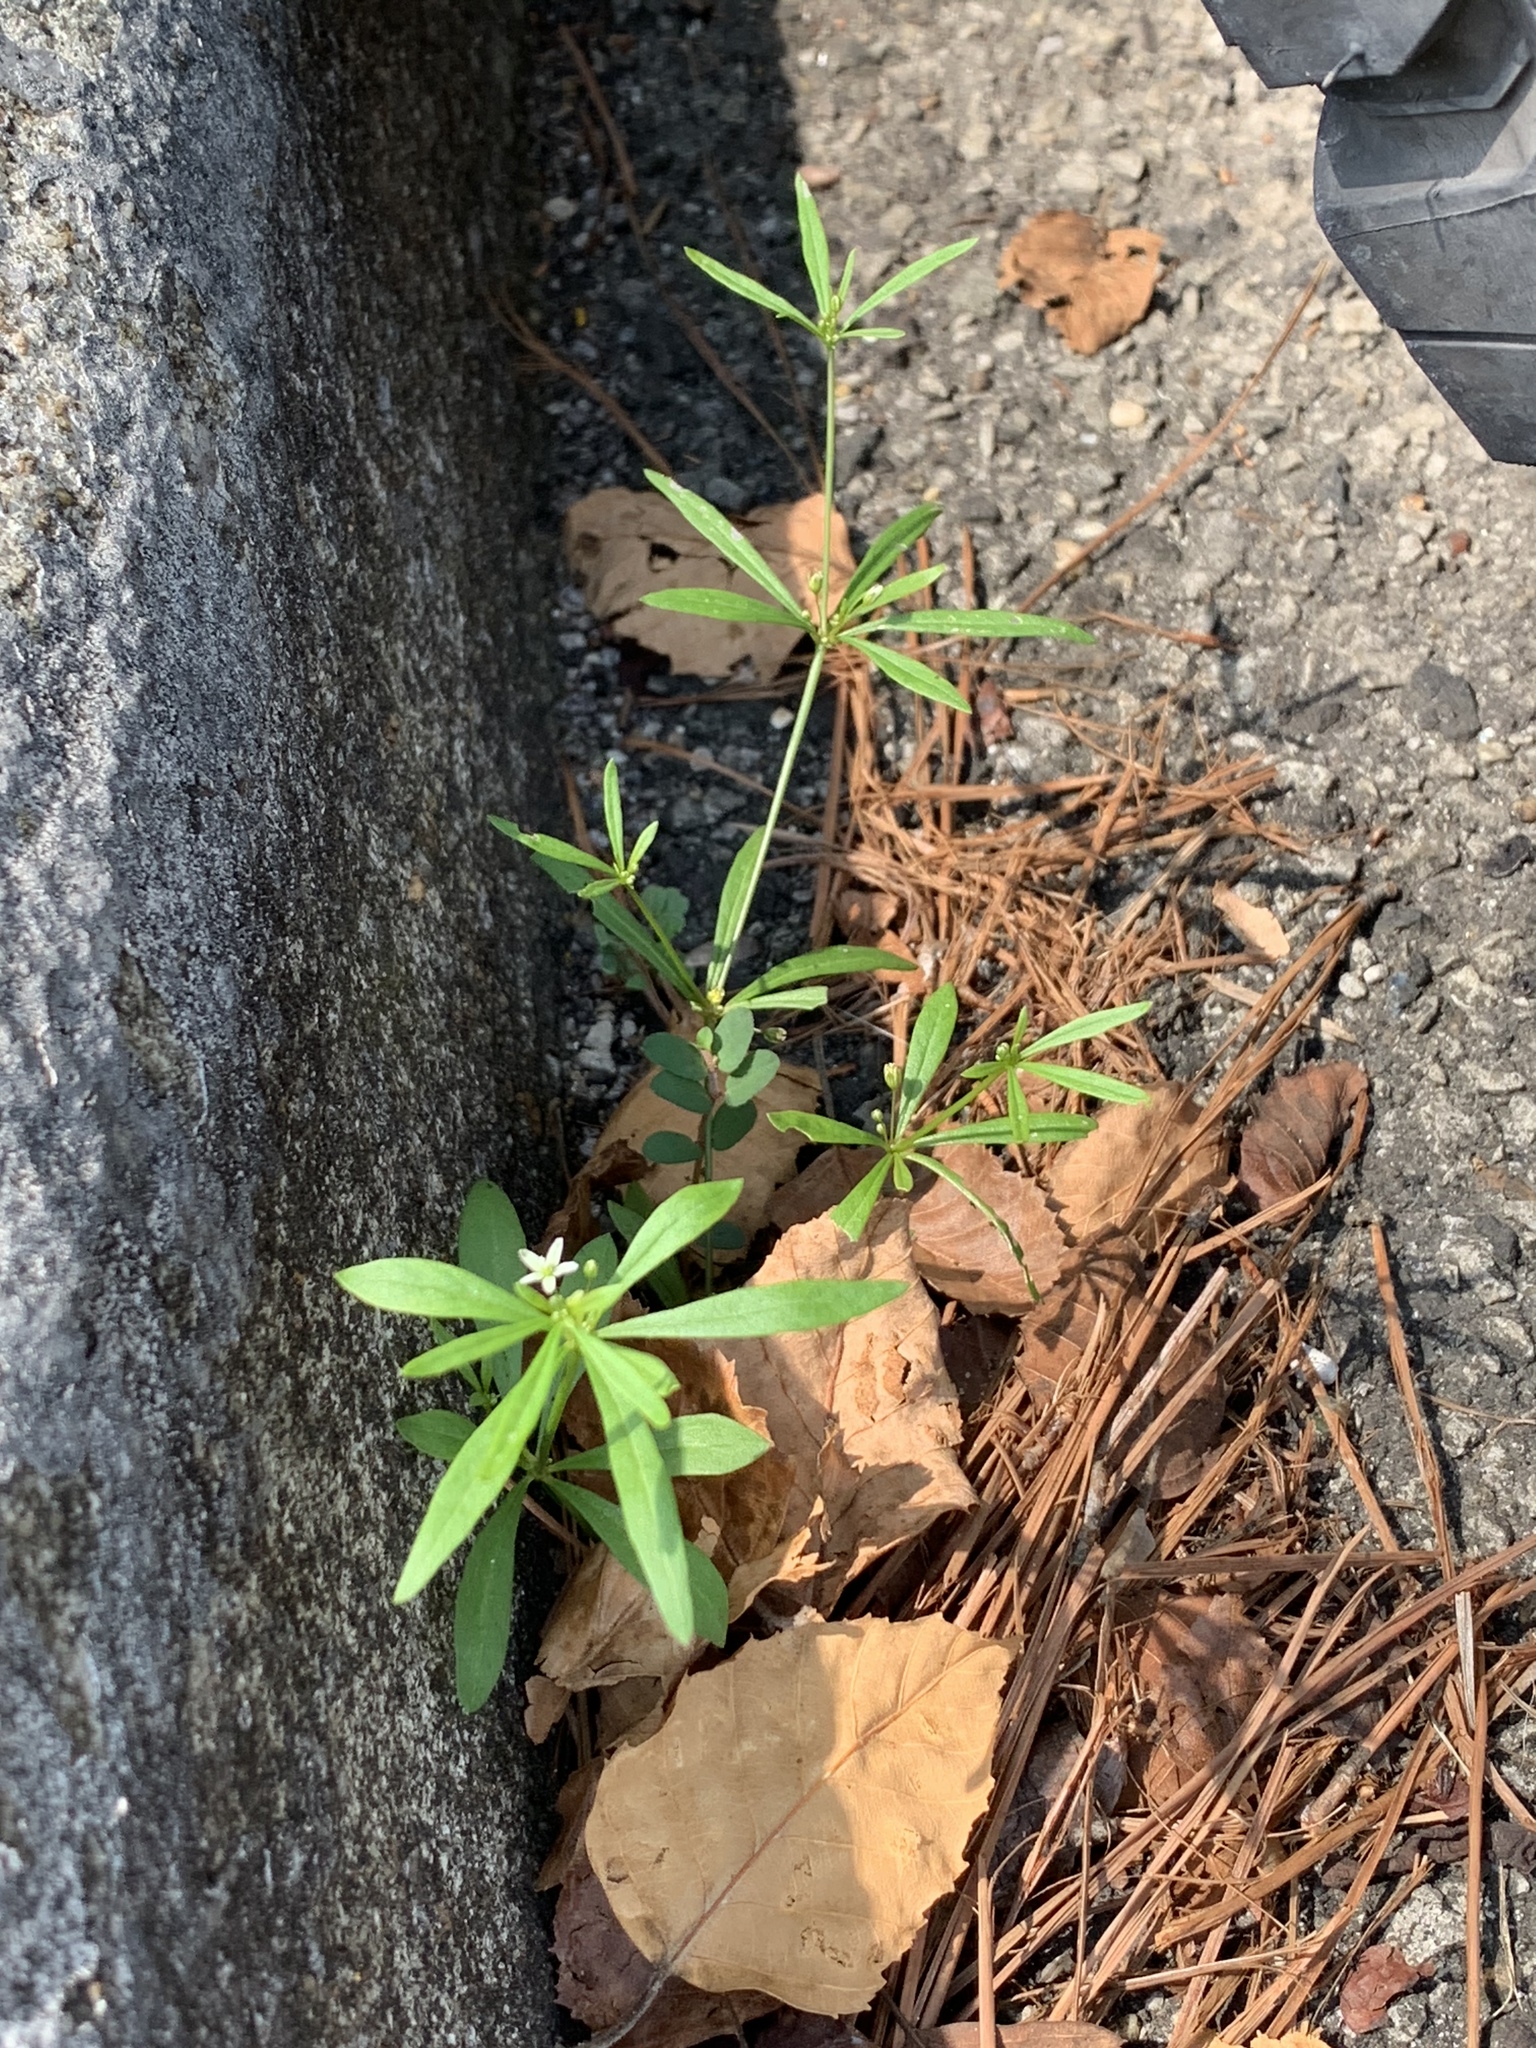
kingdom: Plantae
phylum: Tracheophyta
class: Magnoliopsida
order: Caryophyllales
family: Molluginaceae
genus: Mollugo
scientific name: Mollugo verticillata
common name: Green carpetweed
